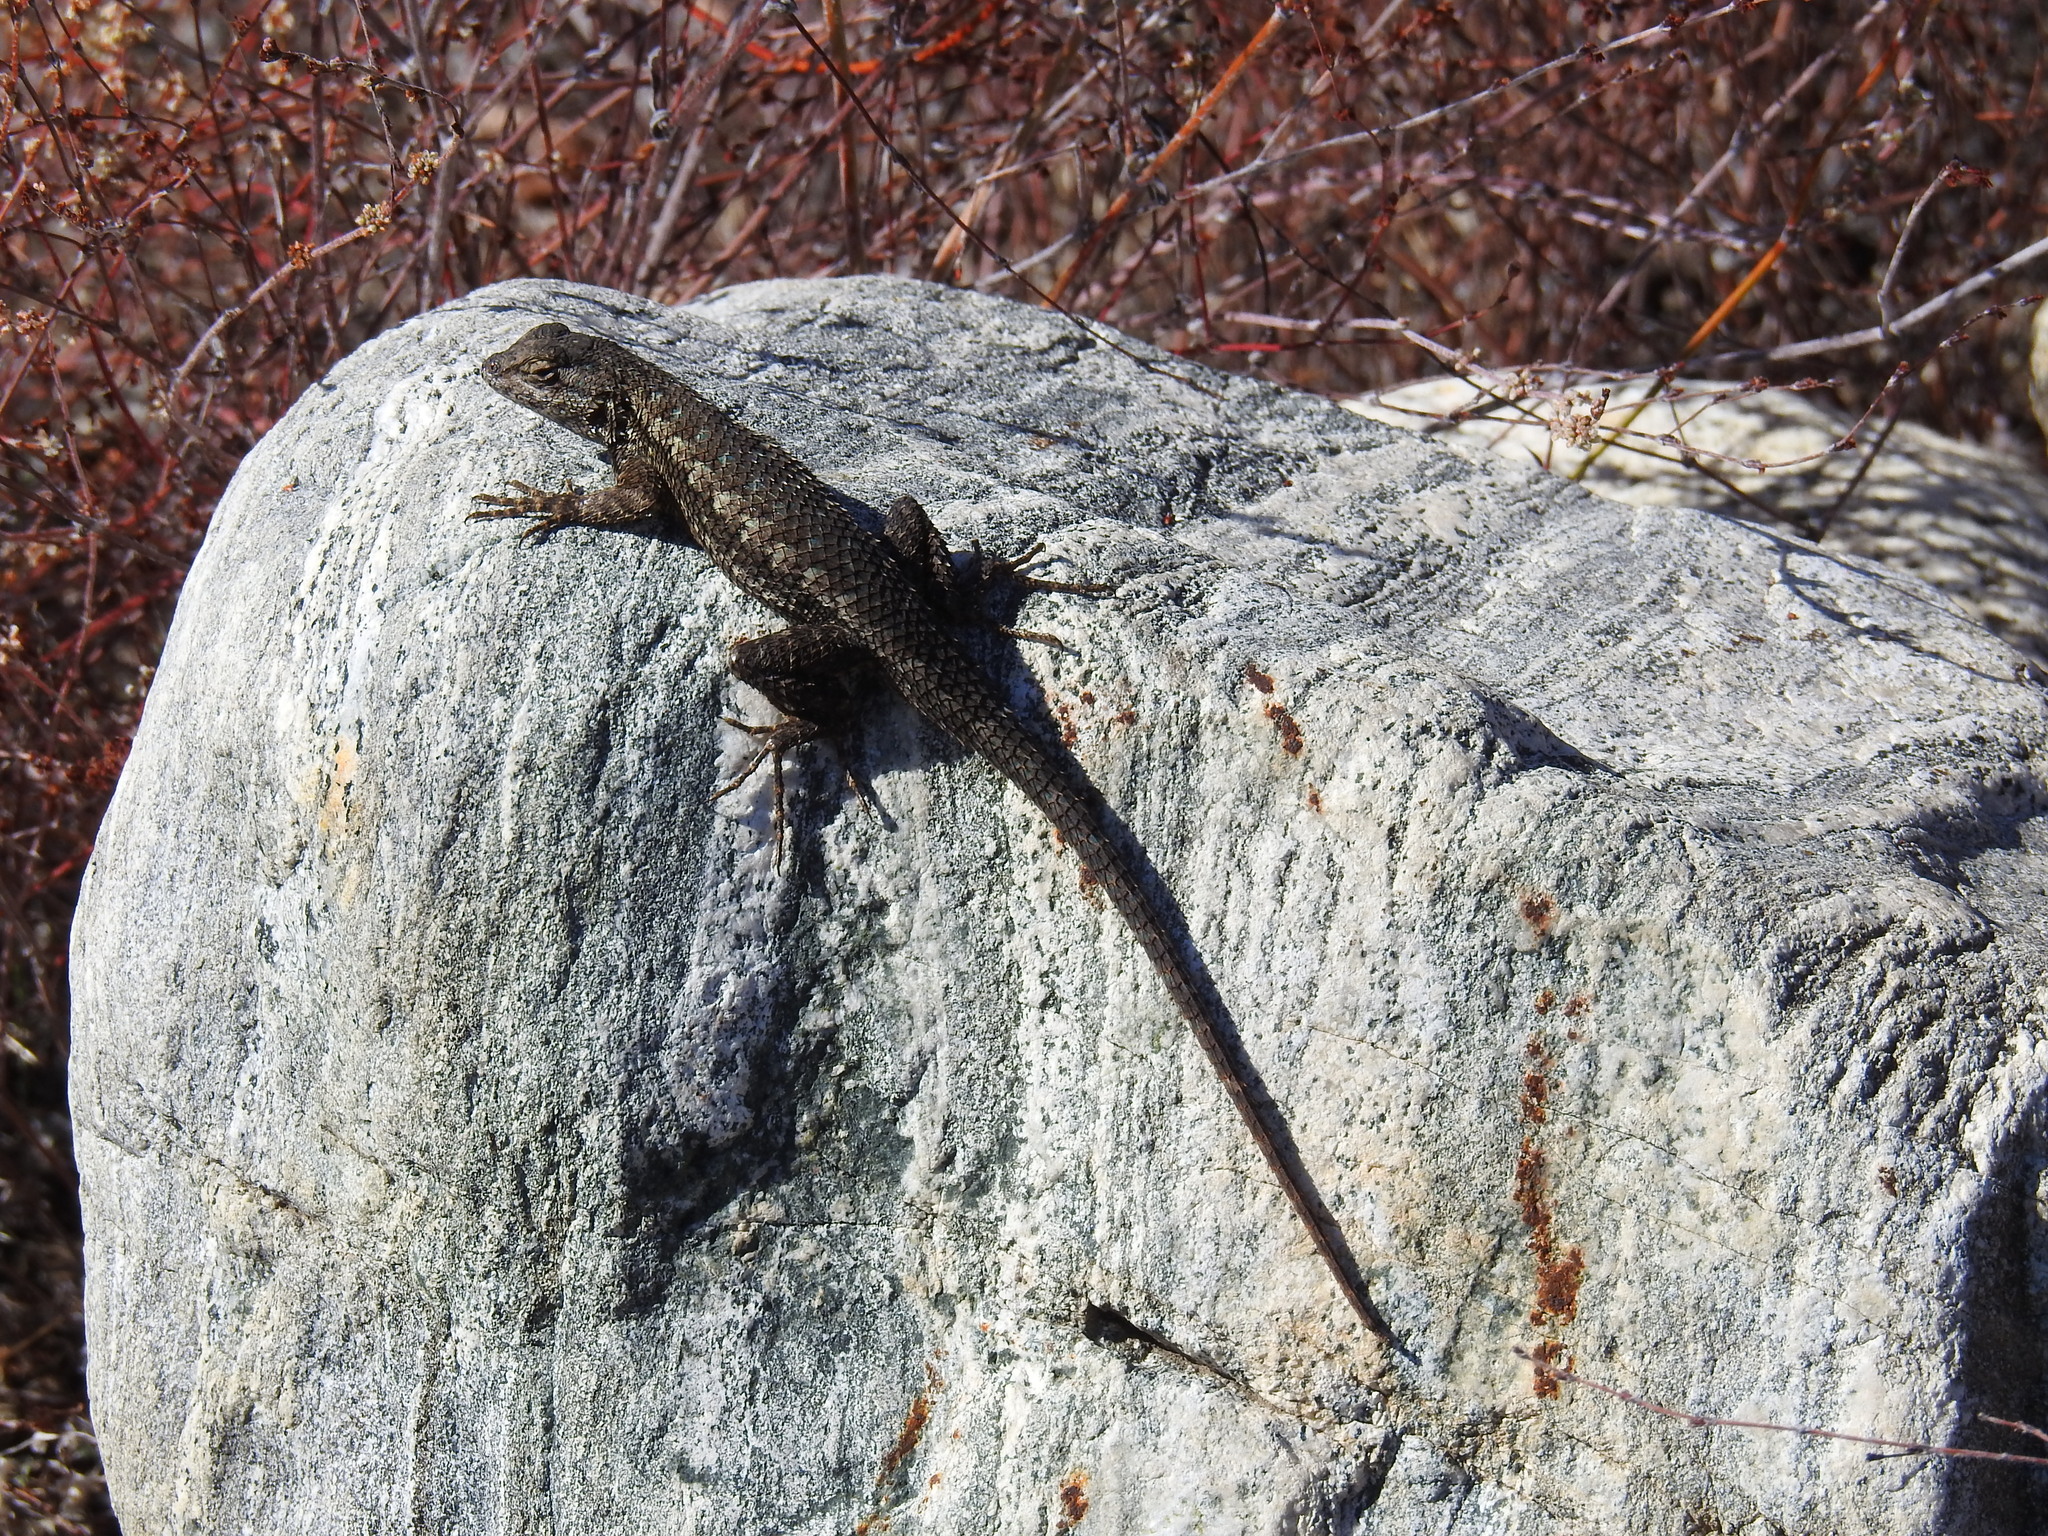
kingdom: Animalia
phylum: Chordata
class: Squamata
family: Phrynosomatidae
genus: Sceloporus
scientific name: Sceloporus occidentalis
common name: Western fence lizard
